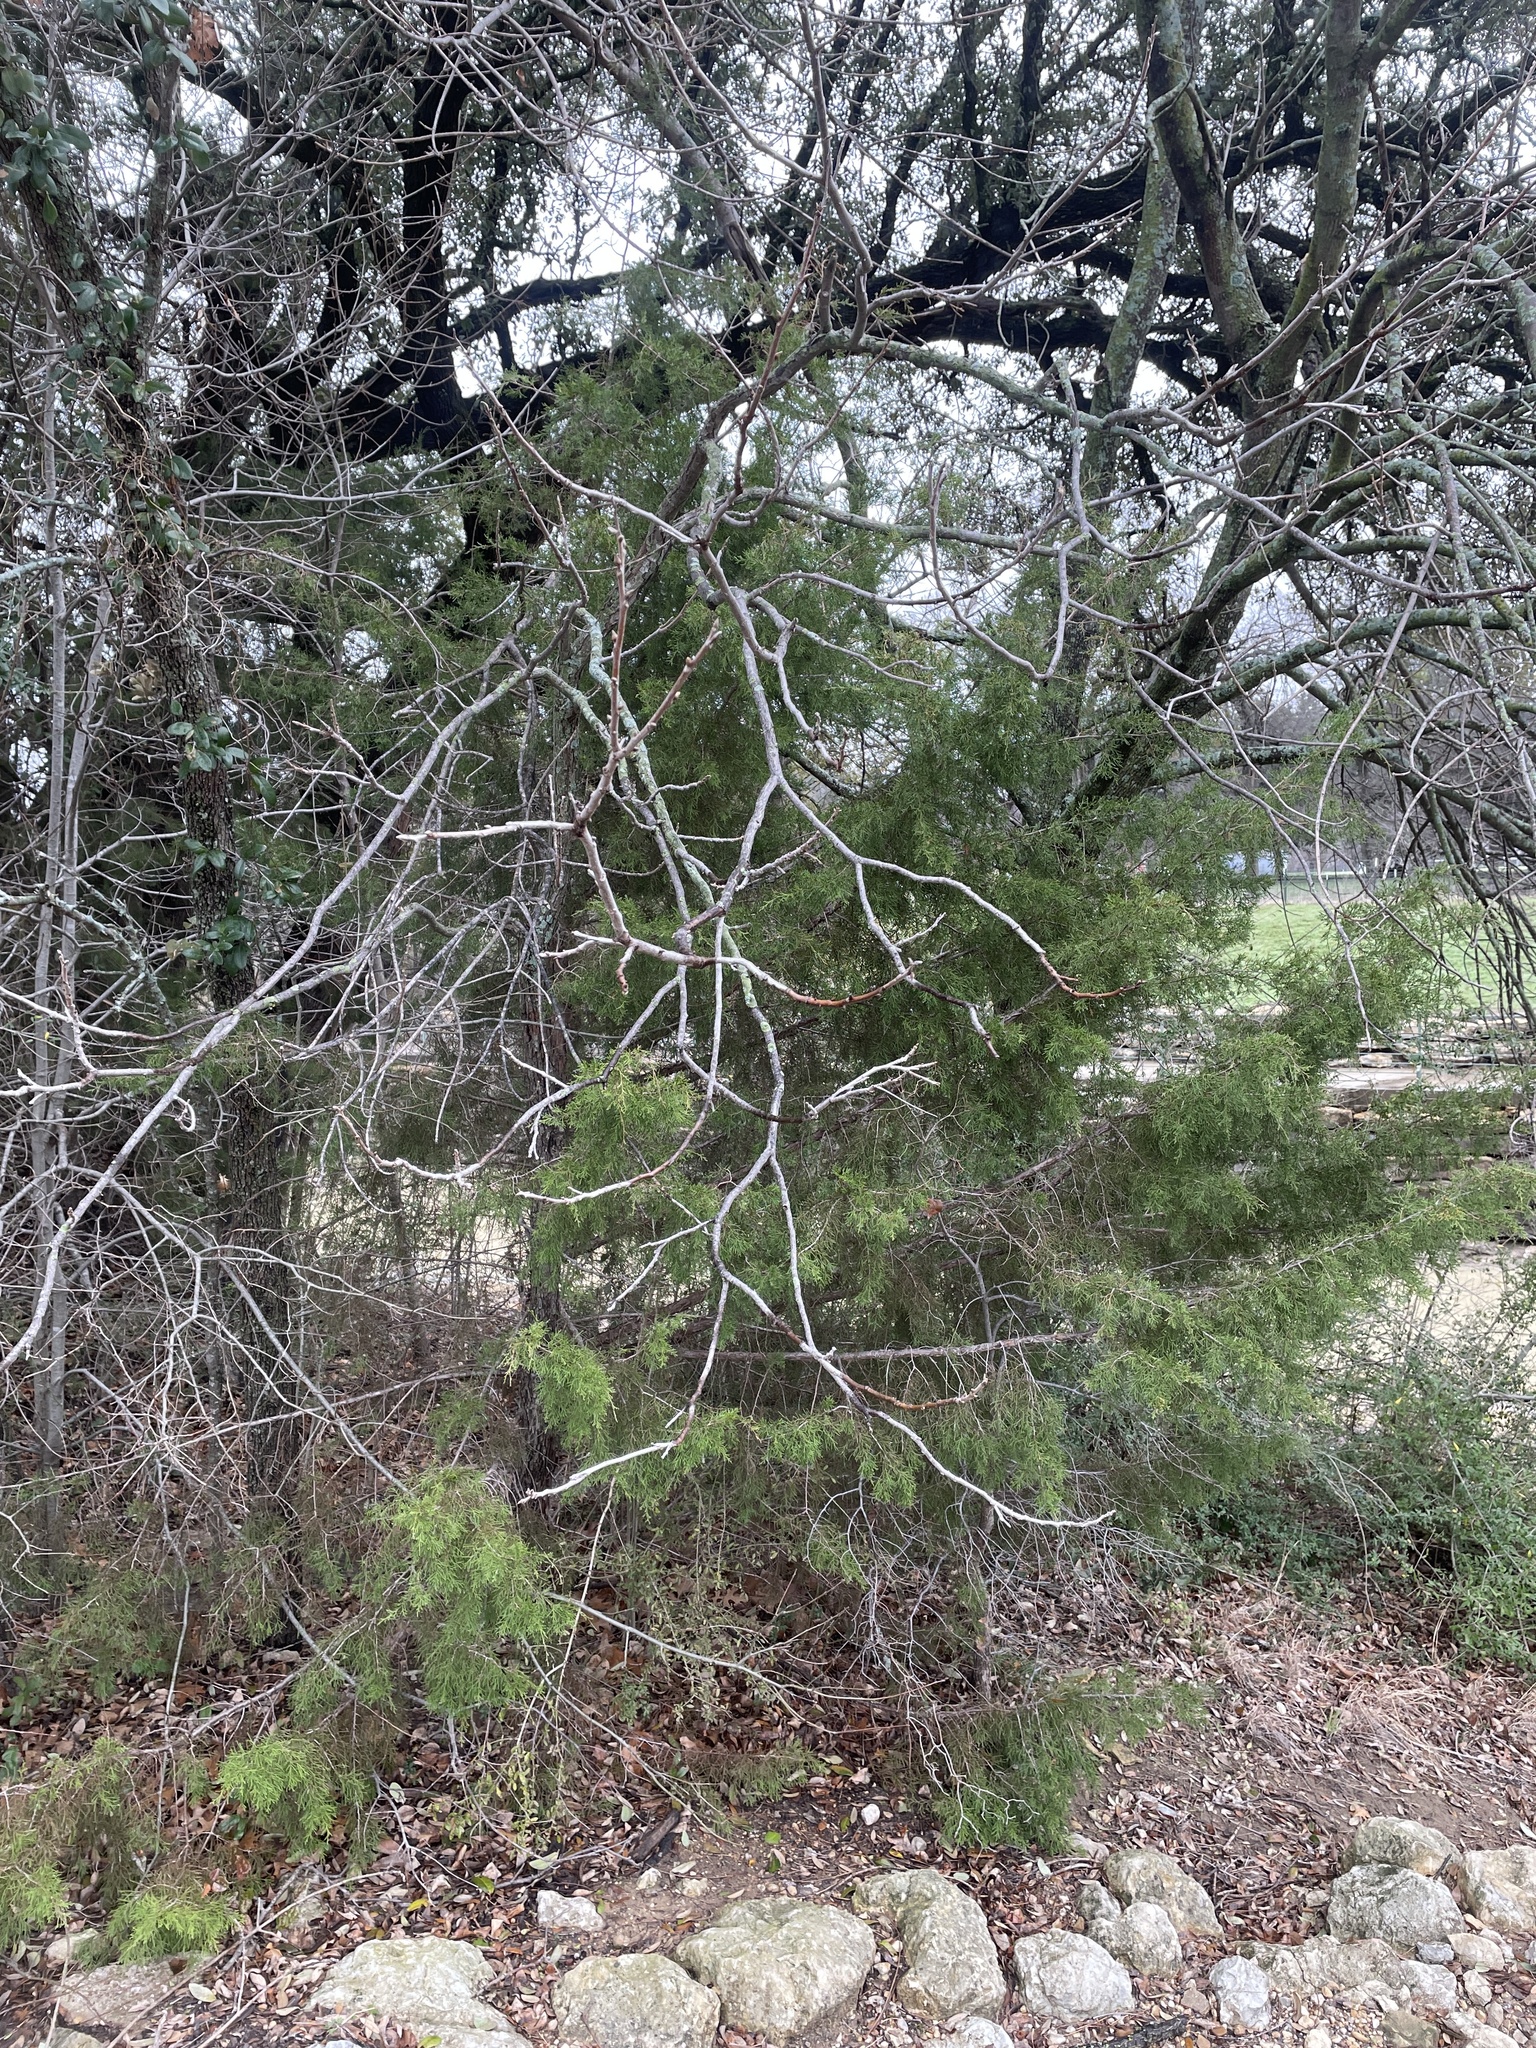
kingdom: Plantae
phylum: Tracheophyta
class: Pinopsida
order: Pinales
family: Cupressaceae
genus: Juniperus
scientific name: Juniperus virginiana
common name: Red juniper
